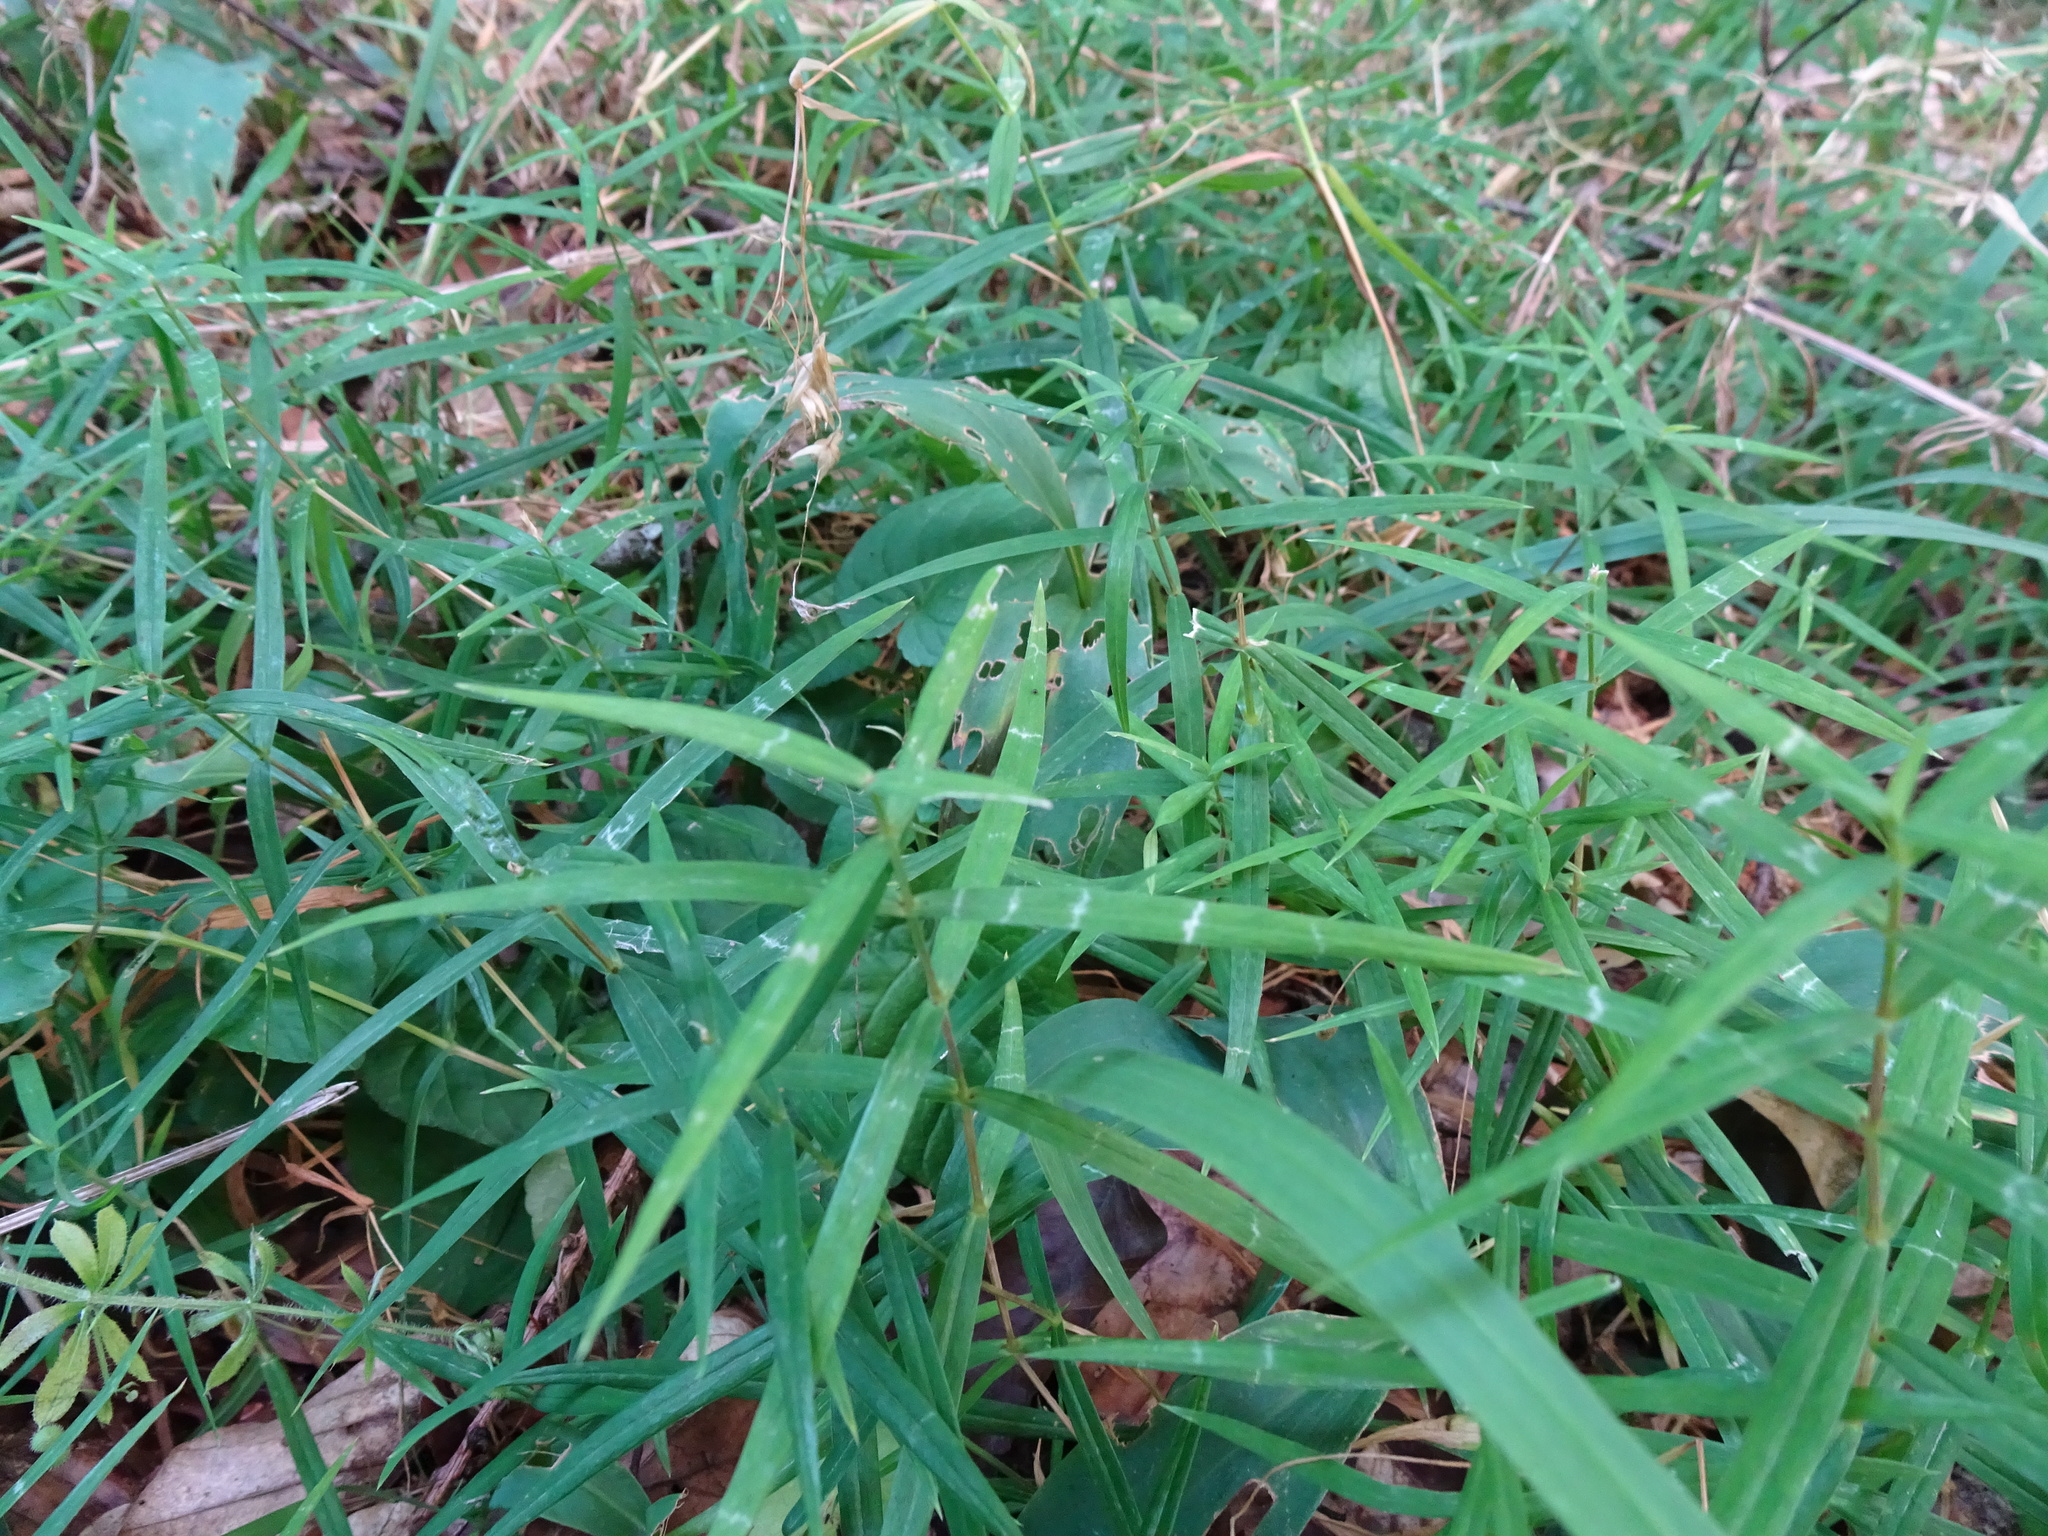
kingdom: Plantae
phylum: Tracheophyta
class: Magnoliopsida
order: Caryophyllales
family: Caryophyllaceae
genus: Rabelera
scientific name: Rabelera holostea
